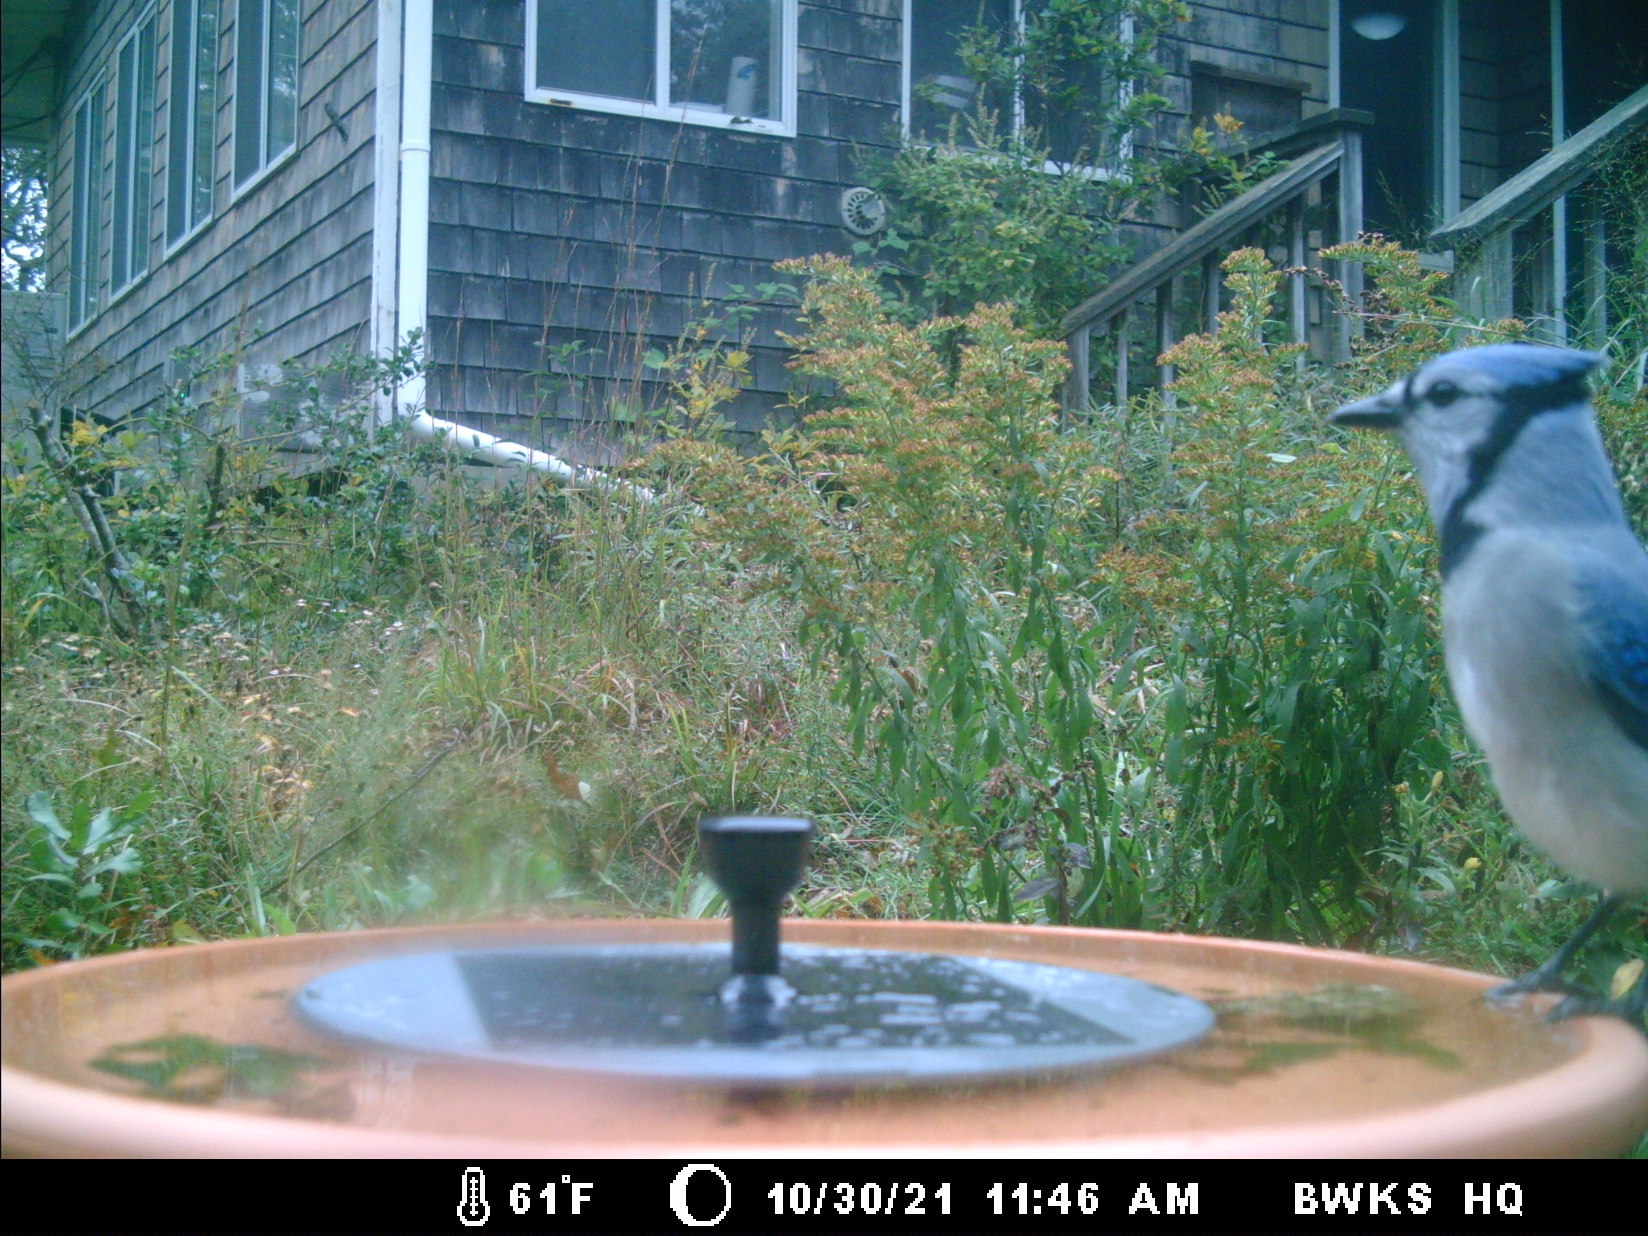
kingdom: Animalia
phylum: Chordata
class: Aves
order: Passeriformes
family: Corvidae
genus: Cyanocitta
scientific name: Cyanocitta cristata
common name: Blue jay
